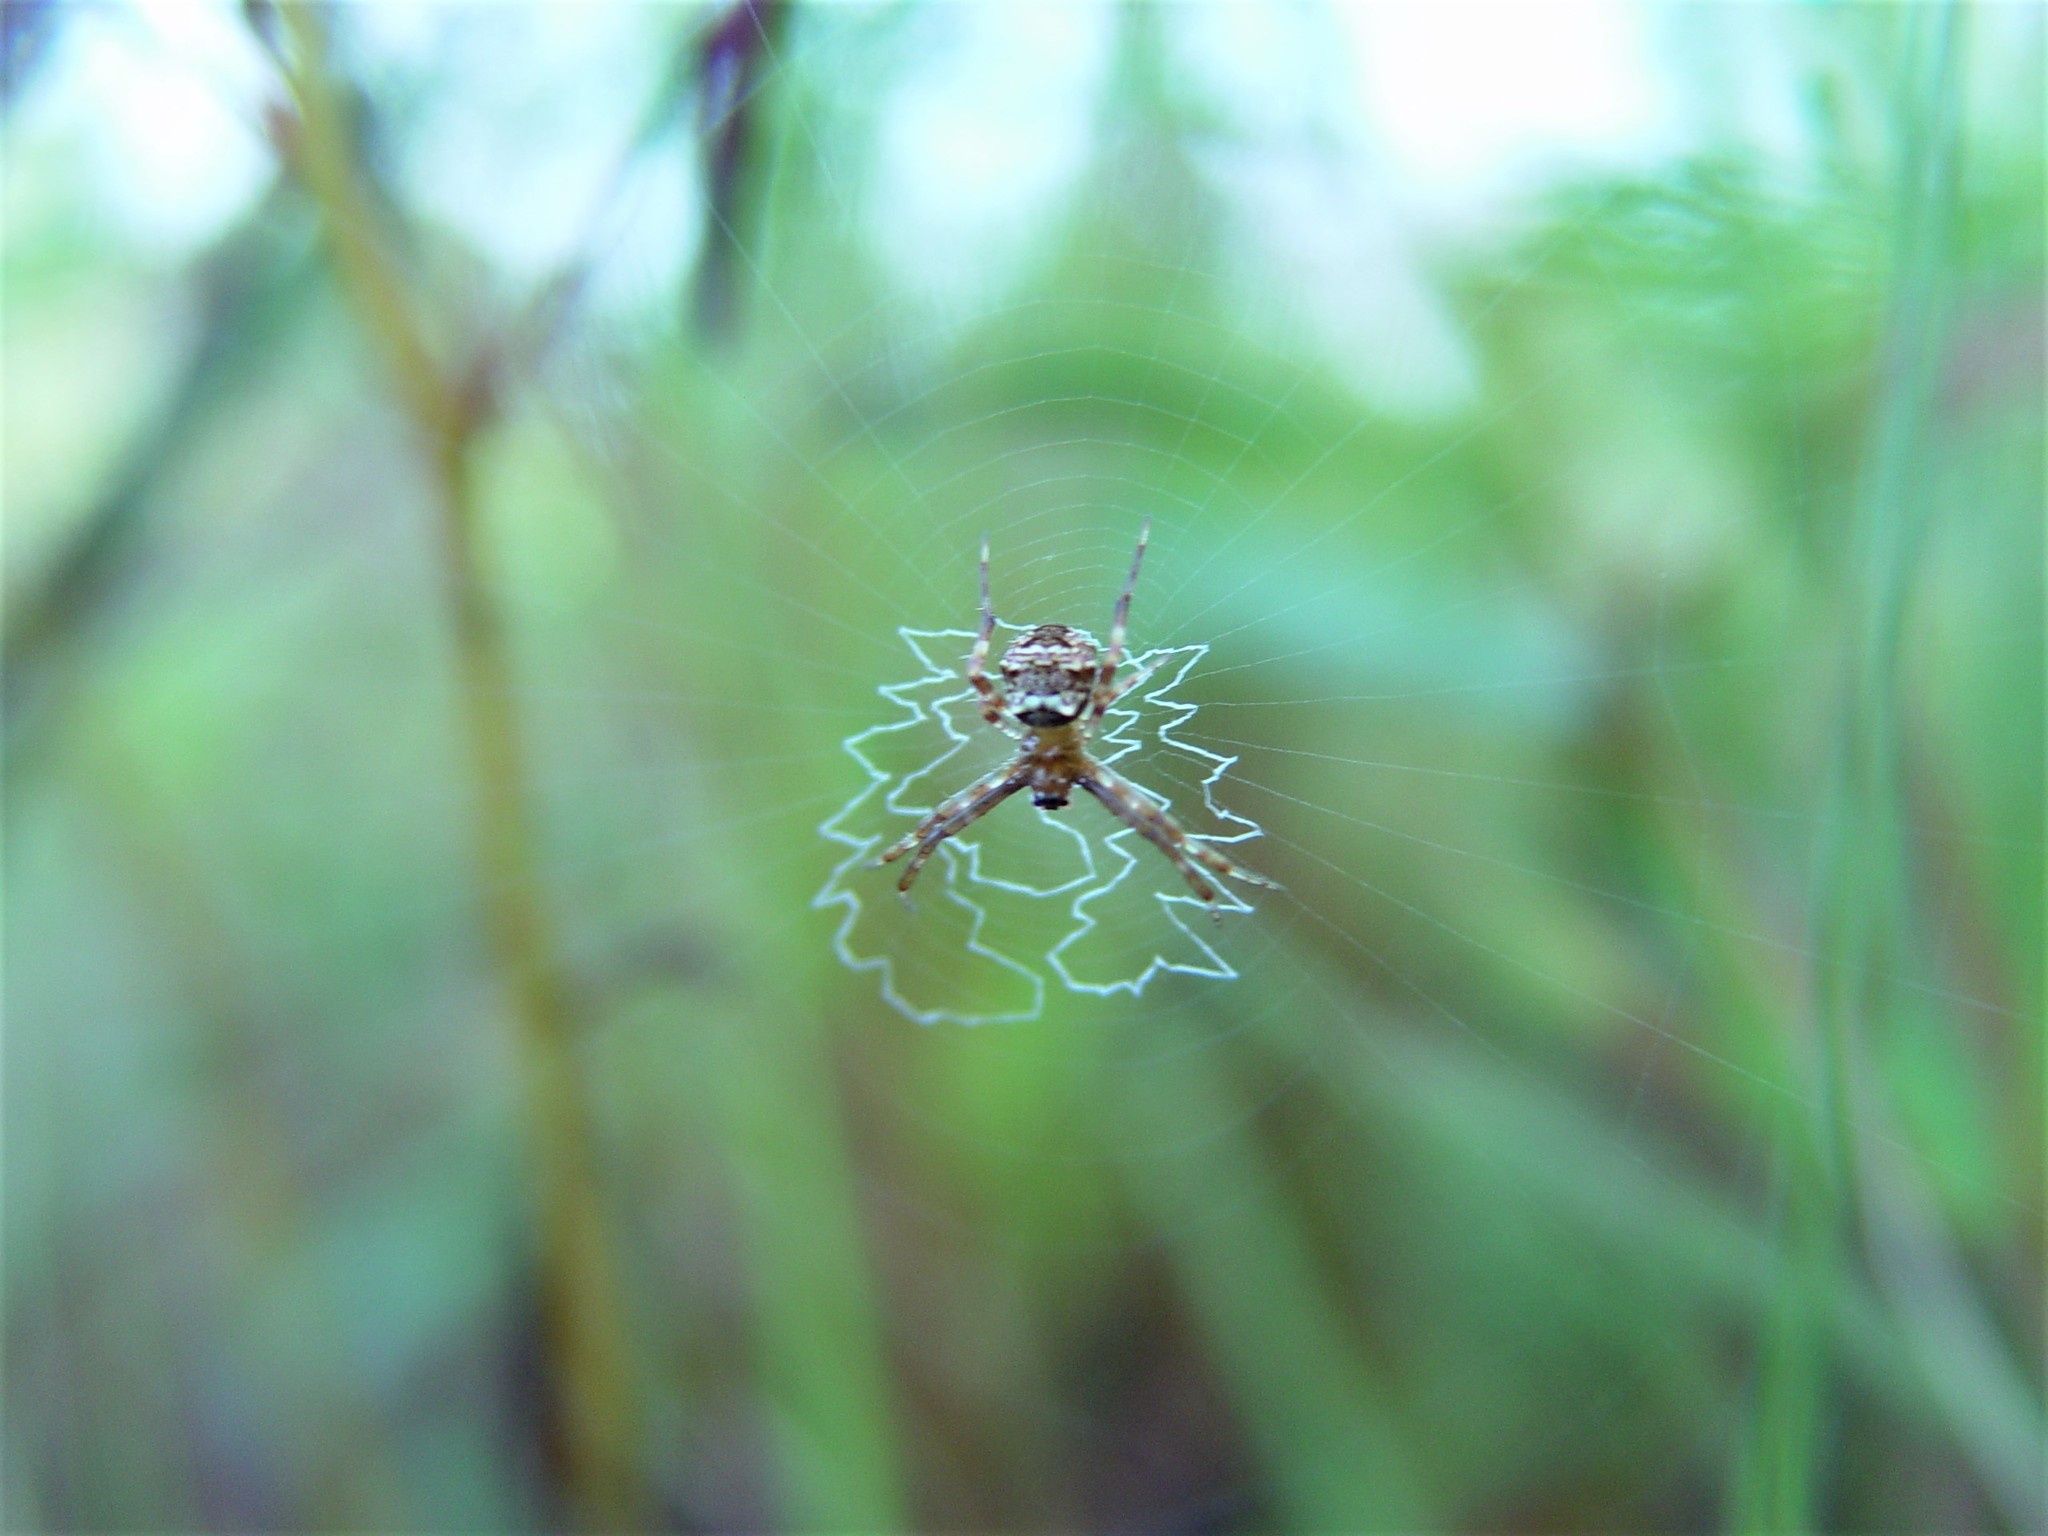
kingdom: Animalia
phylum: Arthropoda
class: Arachnida
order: Araneae
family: Araneidae
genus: Gea
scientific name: Gea heptagon
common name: Orb weavers
